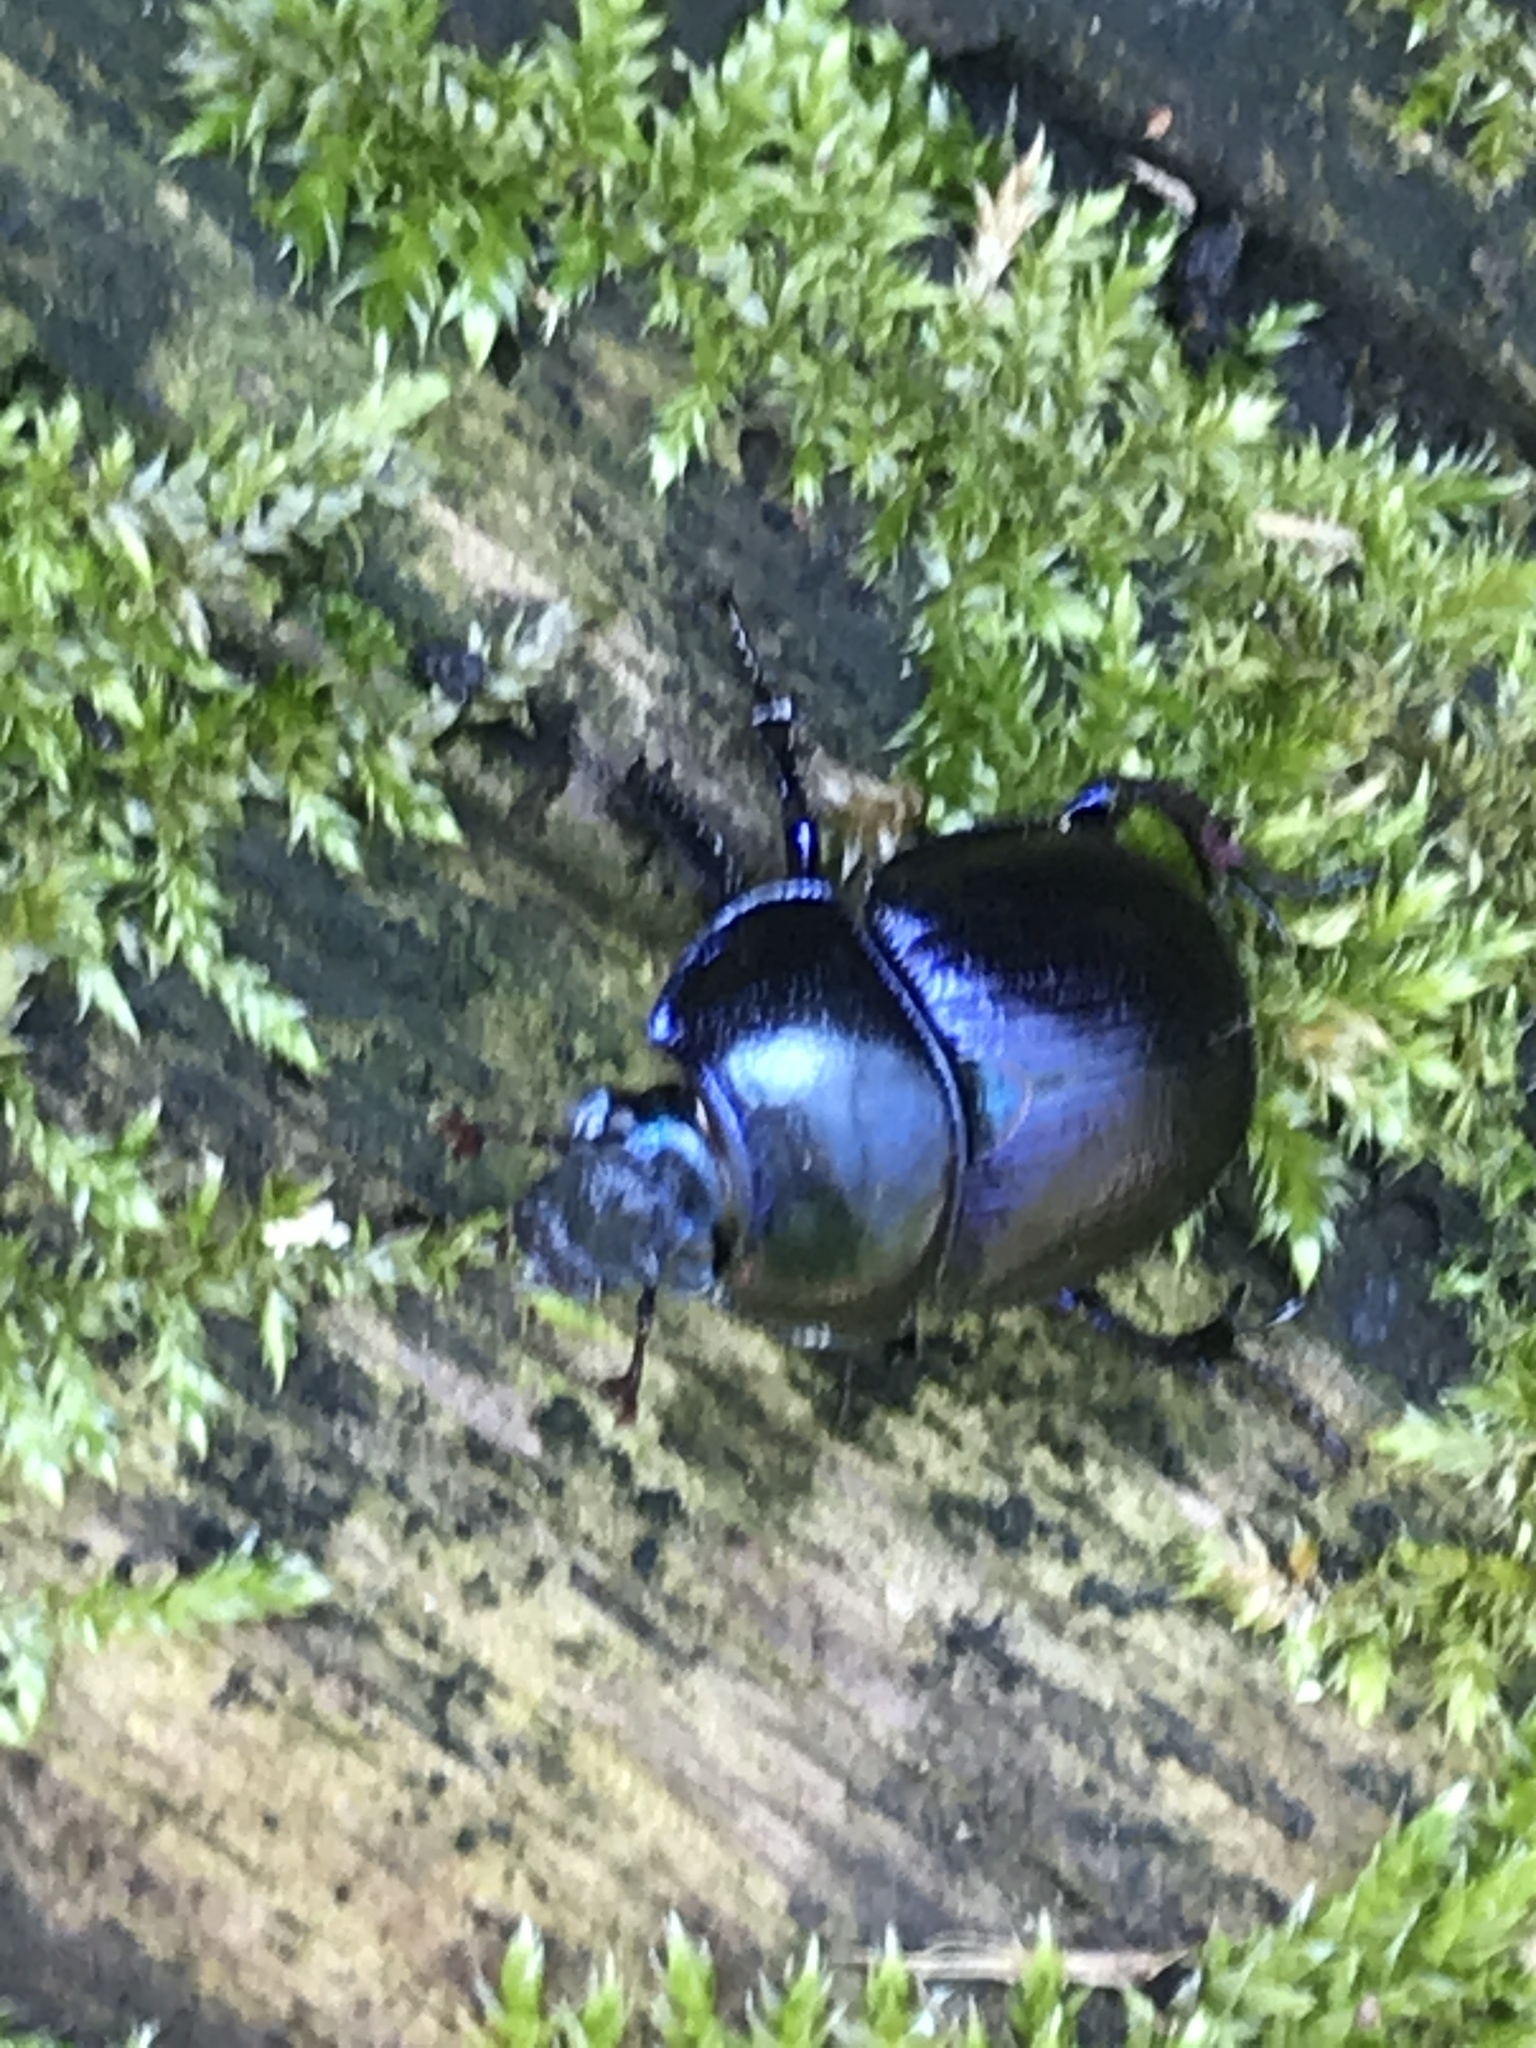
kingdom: Animalia
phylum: Arthropoda
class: Insecta
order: Coleoptera
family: Geotrupidae
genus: Anoplotrupes
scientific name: Anoplotrupes stercorosus
